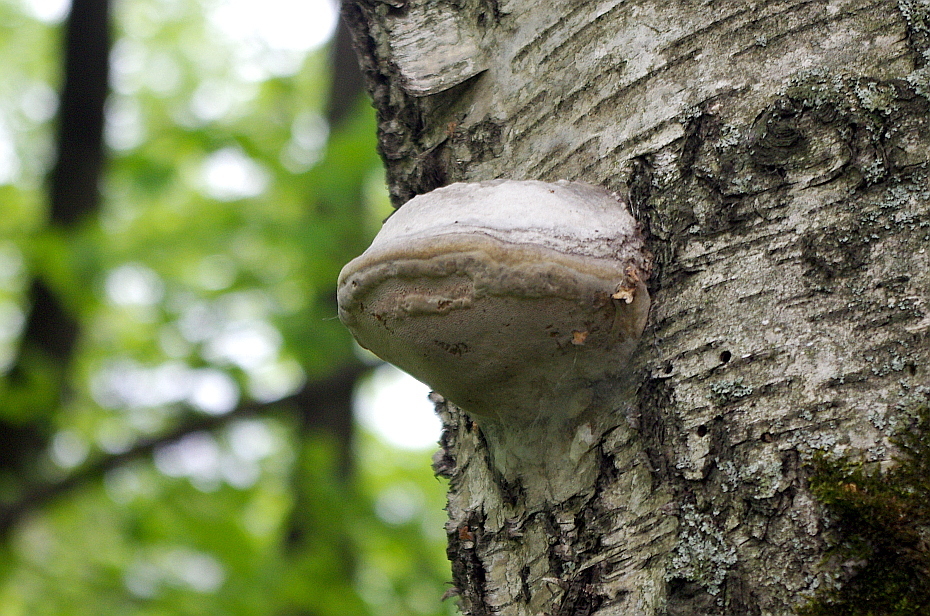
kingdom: Fungi
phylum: Basidiomycota
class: Agaricomycetes
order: Polyporales
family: Polyporaceae
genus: Fomes
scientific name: Fomes fomentarius
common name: Hoof fungus
